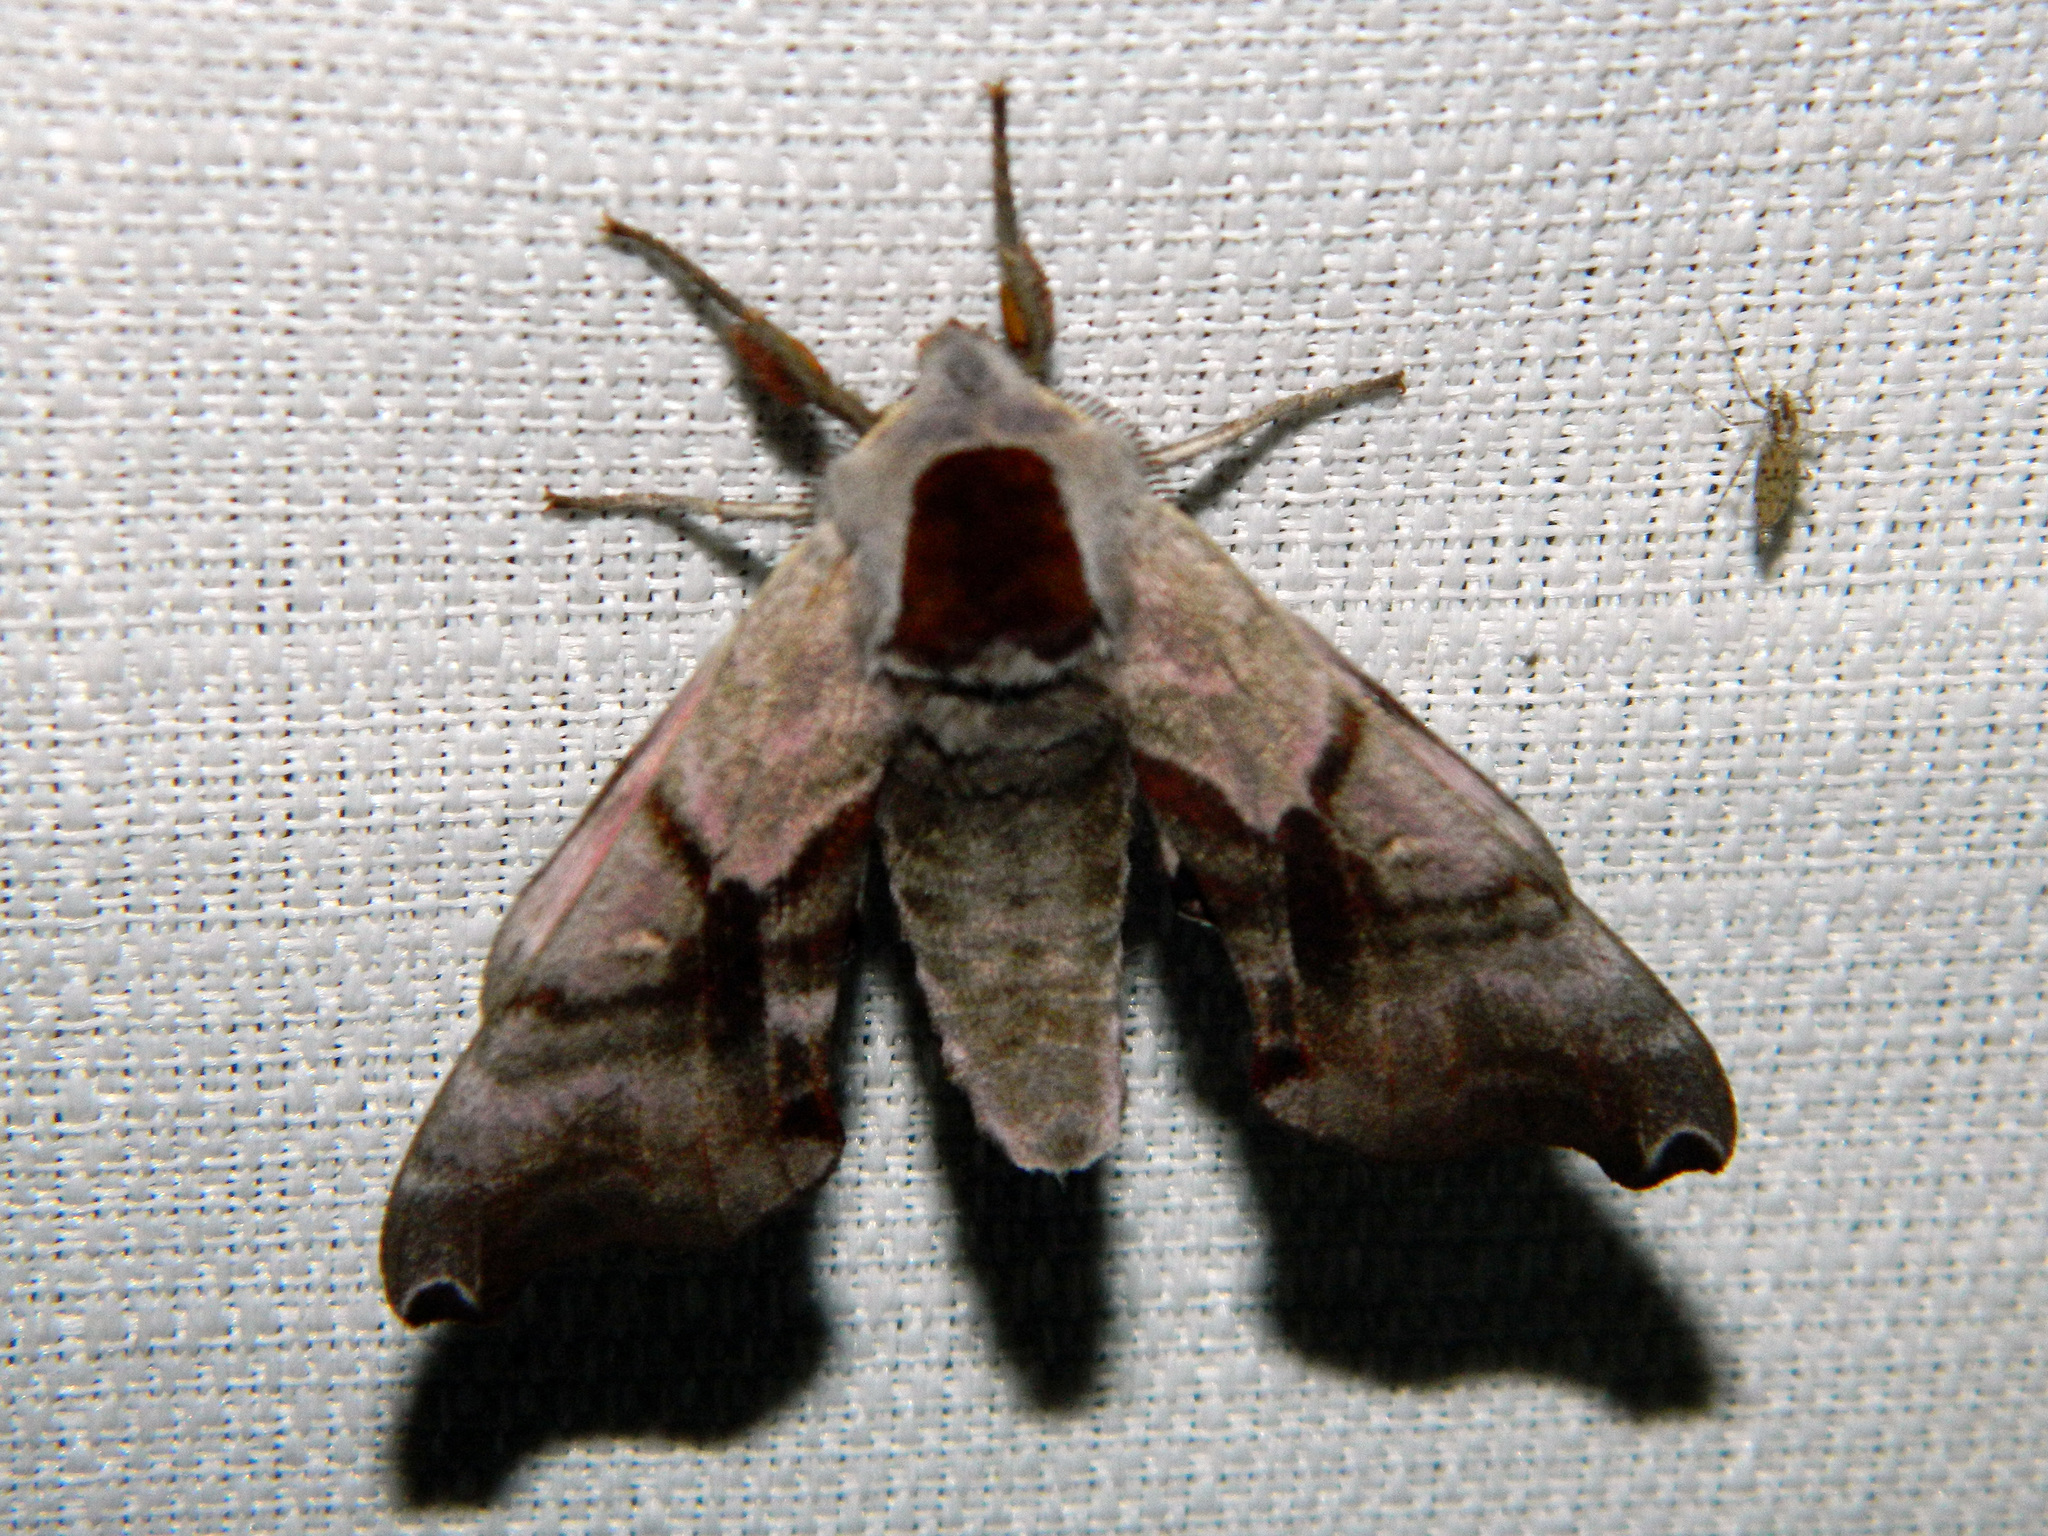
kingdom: Animalia
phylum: Arthropoda
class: Insecta
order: Lepidoptera
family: Sphingidae
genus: Smerinthus
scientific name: Smerinthus jamaicensis
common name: Twin spotted sphinx
